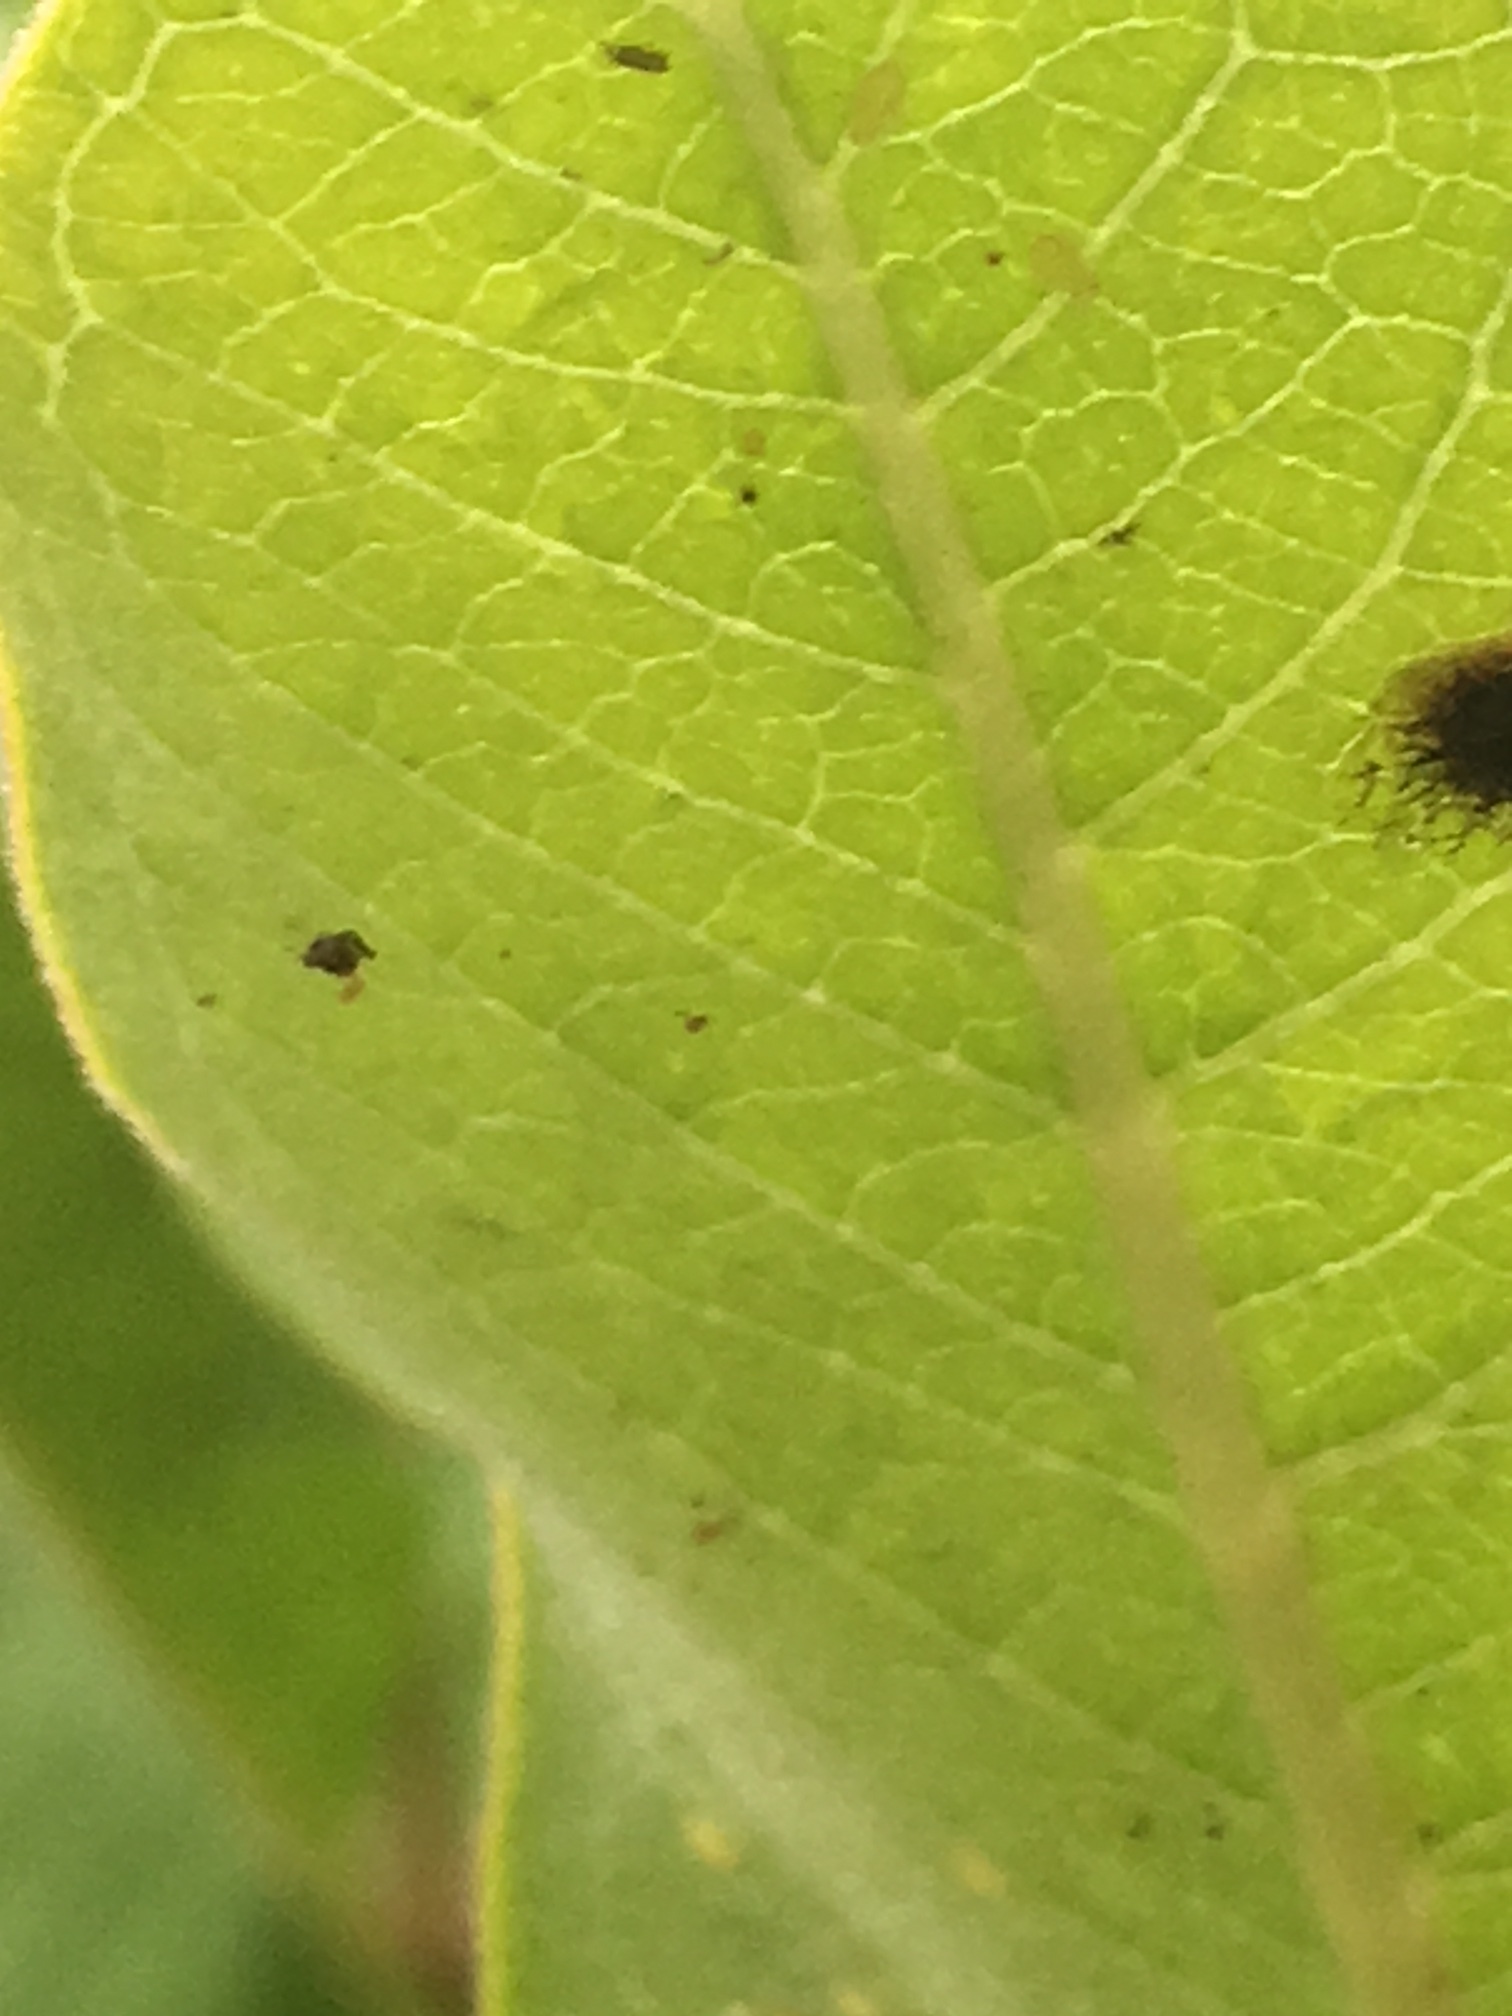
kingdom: Animalia
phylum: Arthropoda
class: Insecta
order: Lepidoptera
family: Nymphalidae
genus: Danaus
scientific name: Danaus plexippus
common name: Monarch
